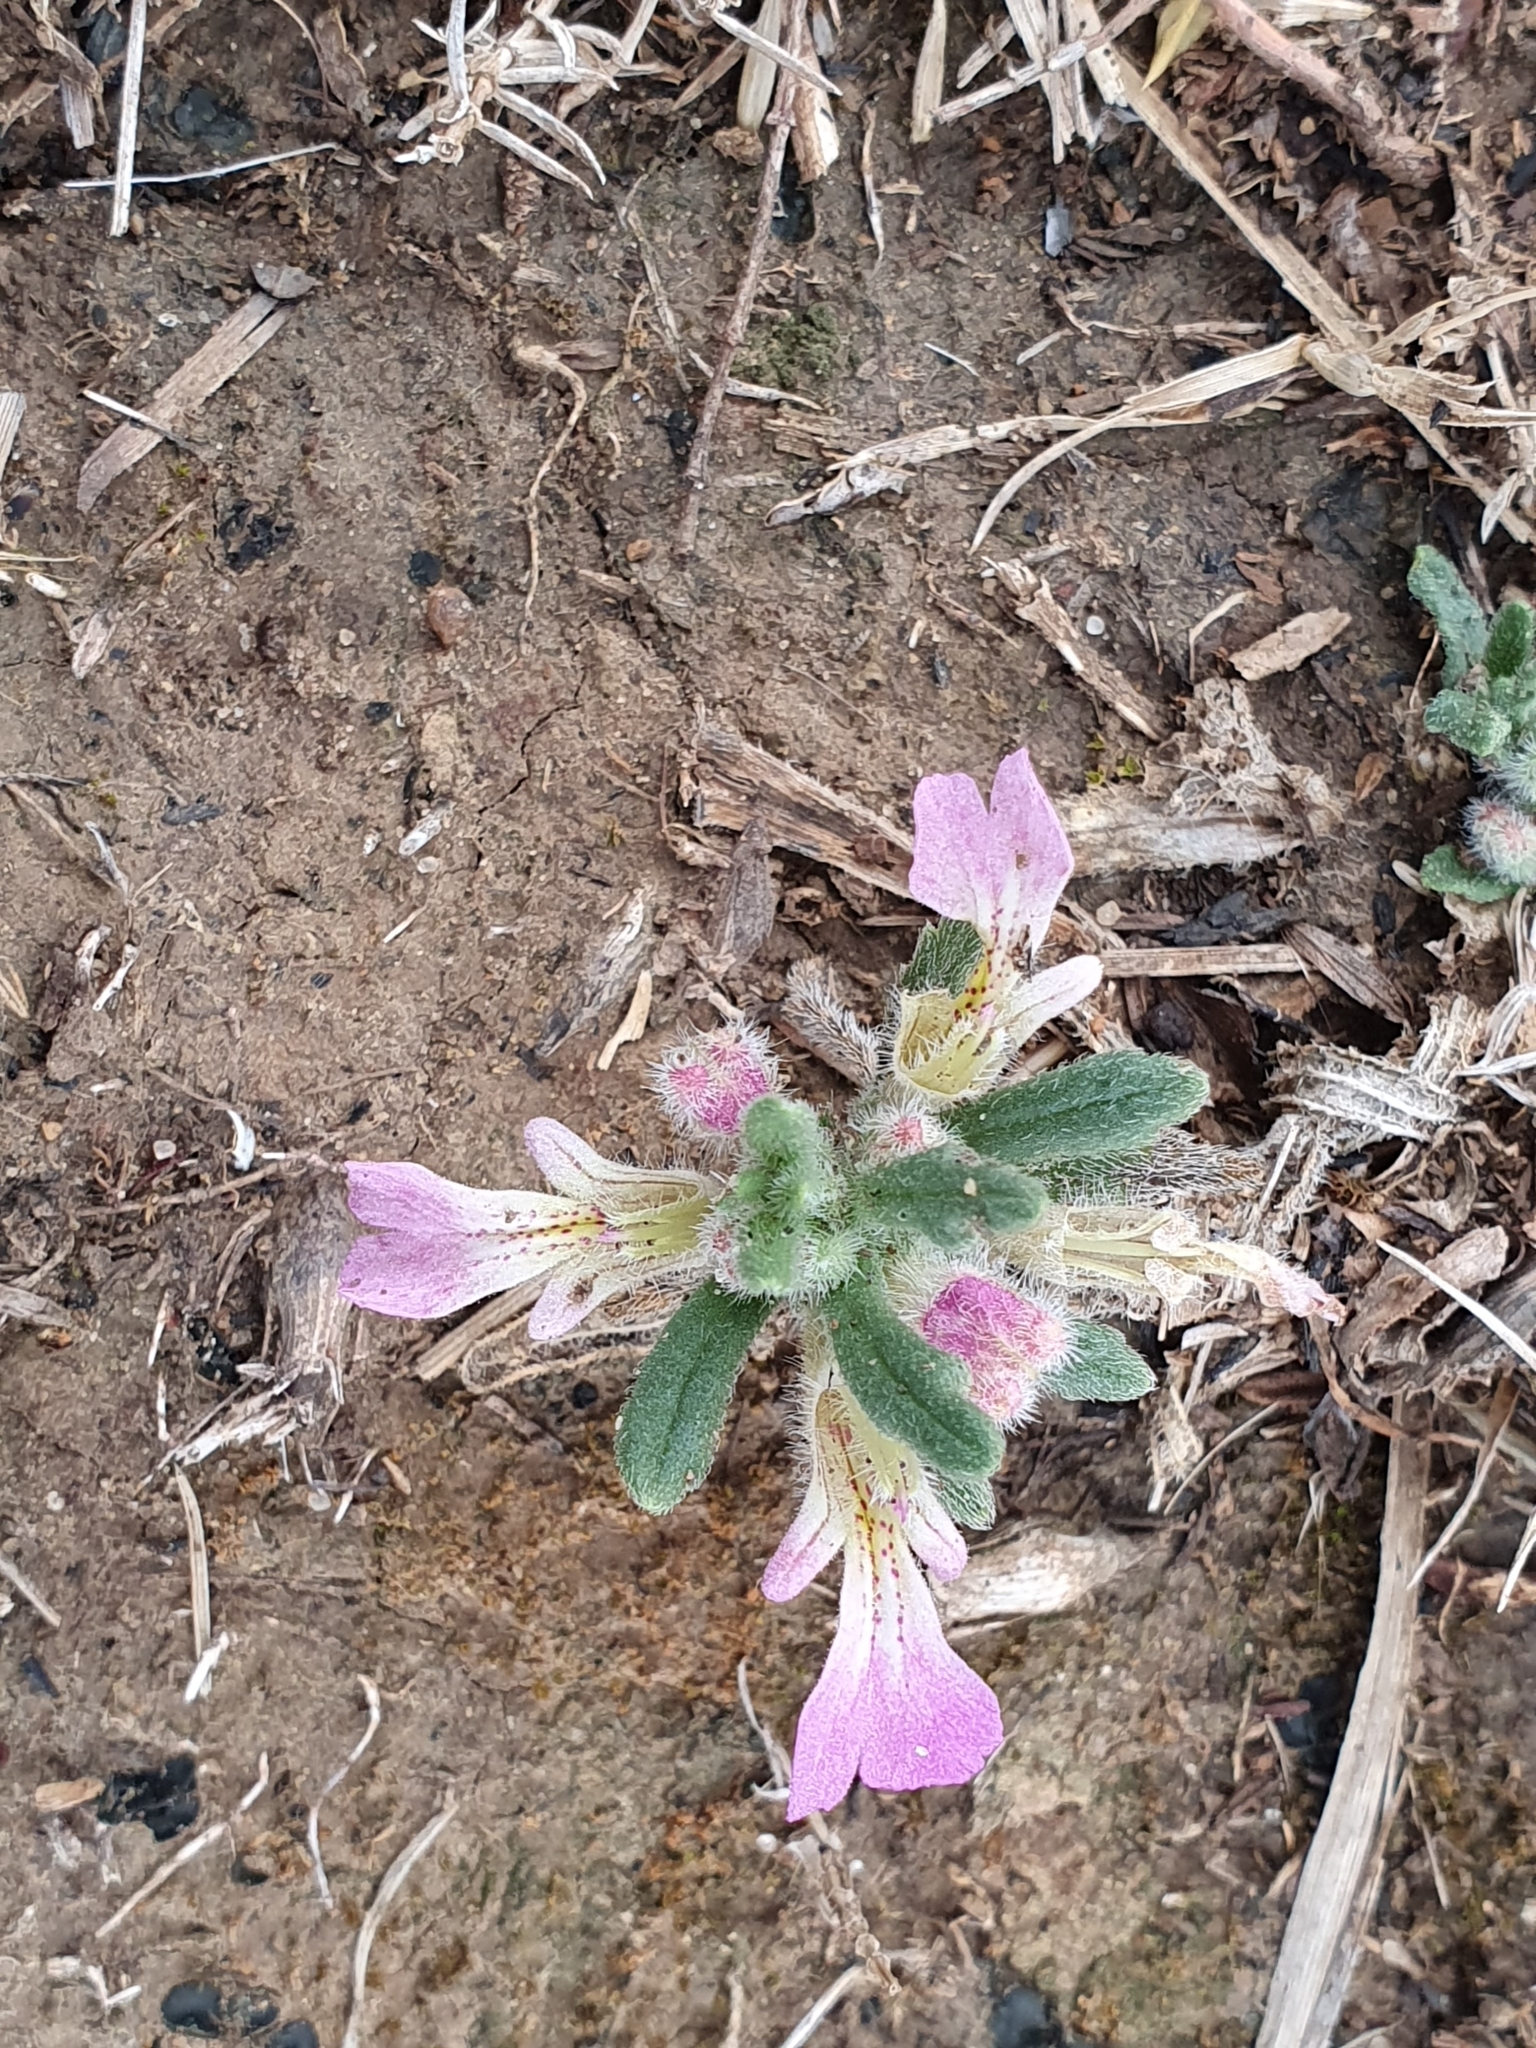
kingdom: Plantae
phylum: Tracheophyta
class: Magnoliopsida
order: Lamiales
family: Lamiaceae
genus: Ajuga
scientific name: Ajuga iva
